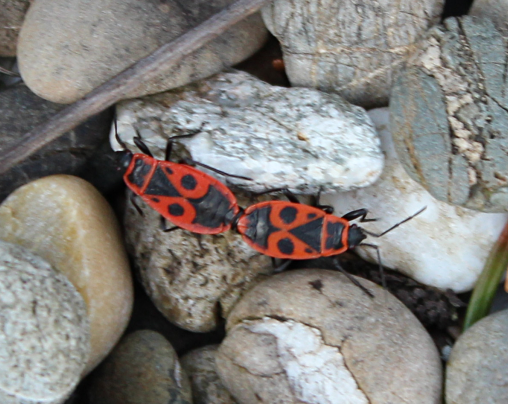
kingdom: Animalia
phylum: Arthropoda
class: Insecta
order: Hemiptera
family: Pyrrhocoridae
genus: Pyrrhocoris
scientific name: Pyrrhocoris apterus
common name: Firebug
